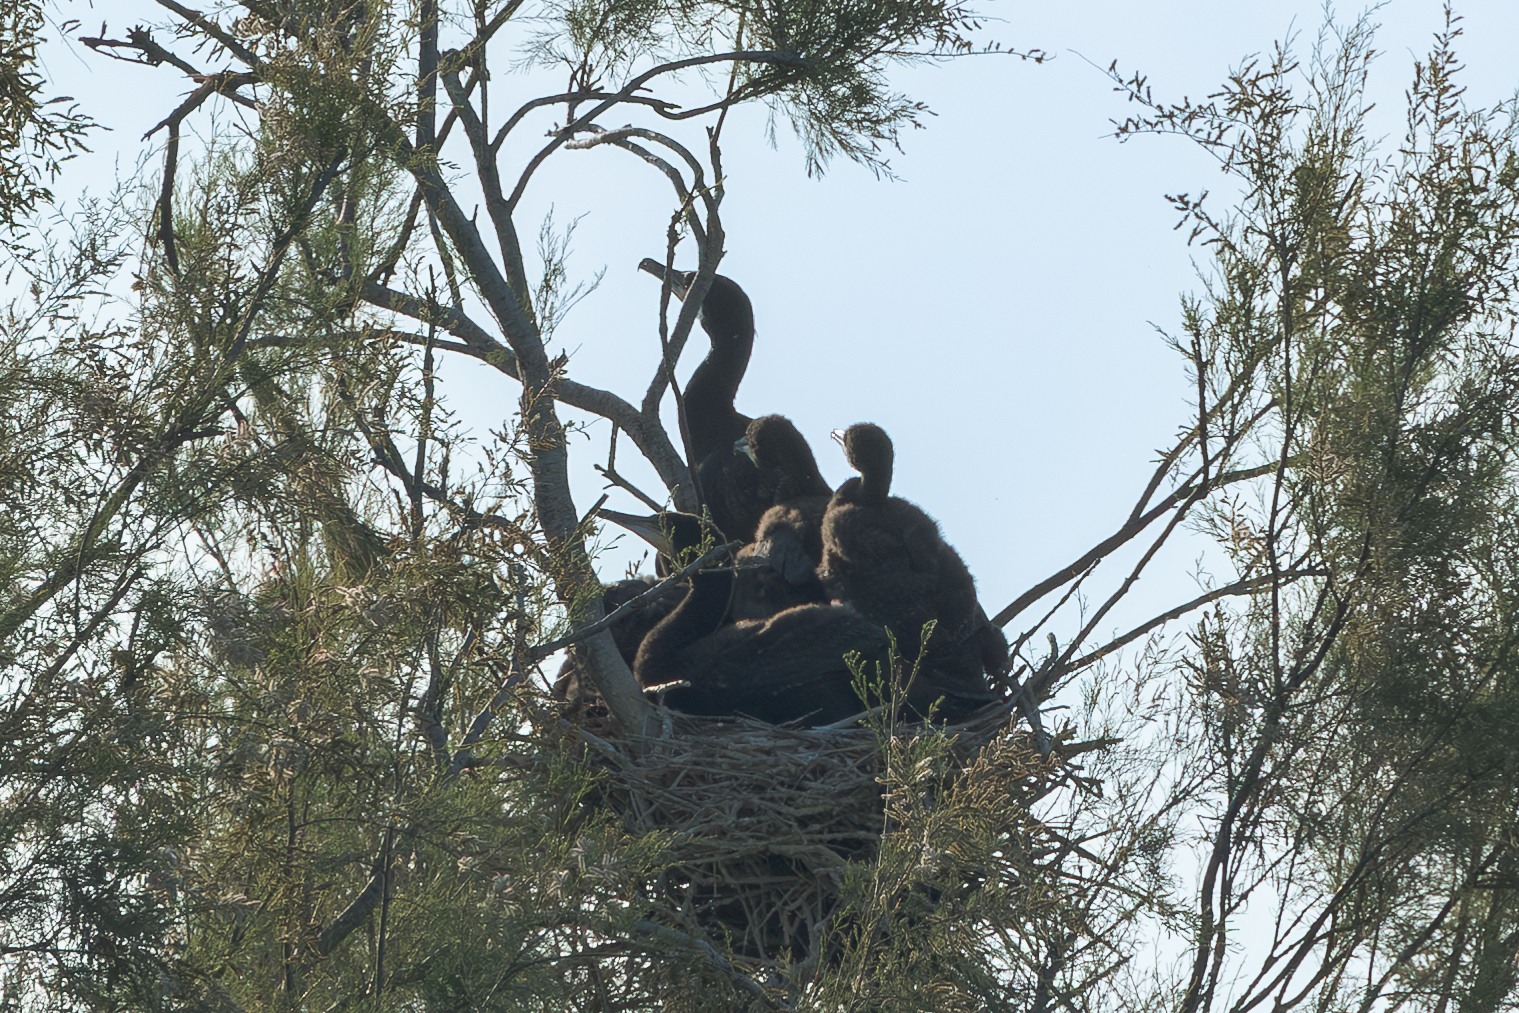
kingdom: Animalia
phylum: Chordata
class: Aves
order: Suliformes
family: Phalacrocoracidae
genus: Phalacrocorax
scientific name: Phalacrocorax carbo
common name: Great cormorant
